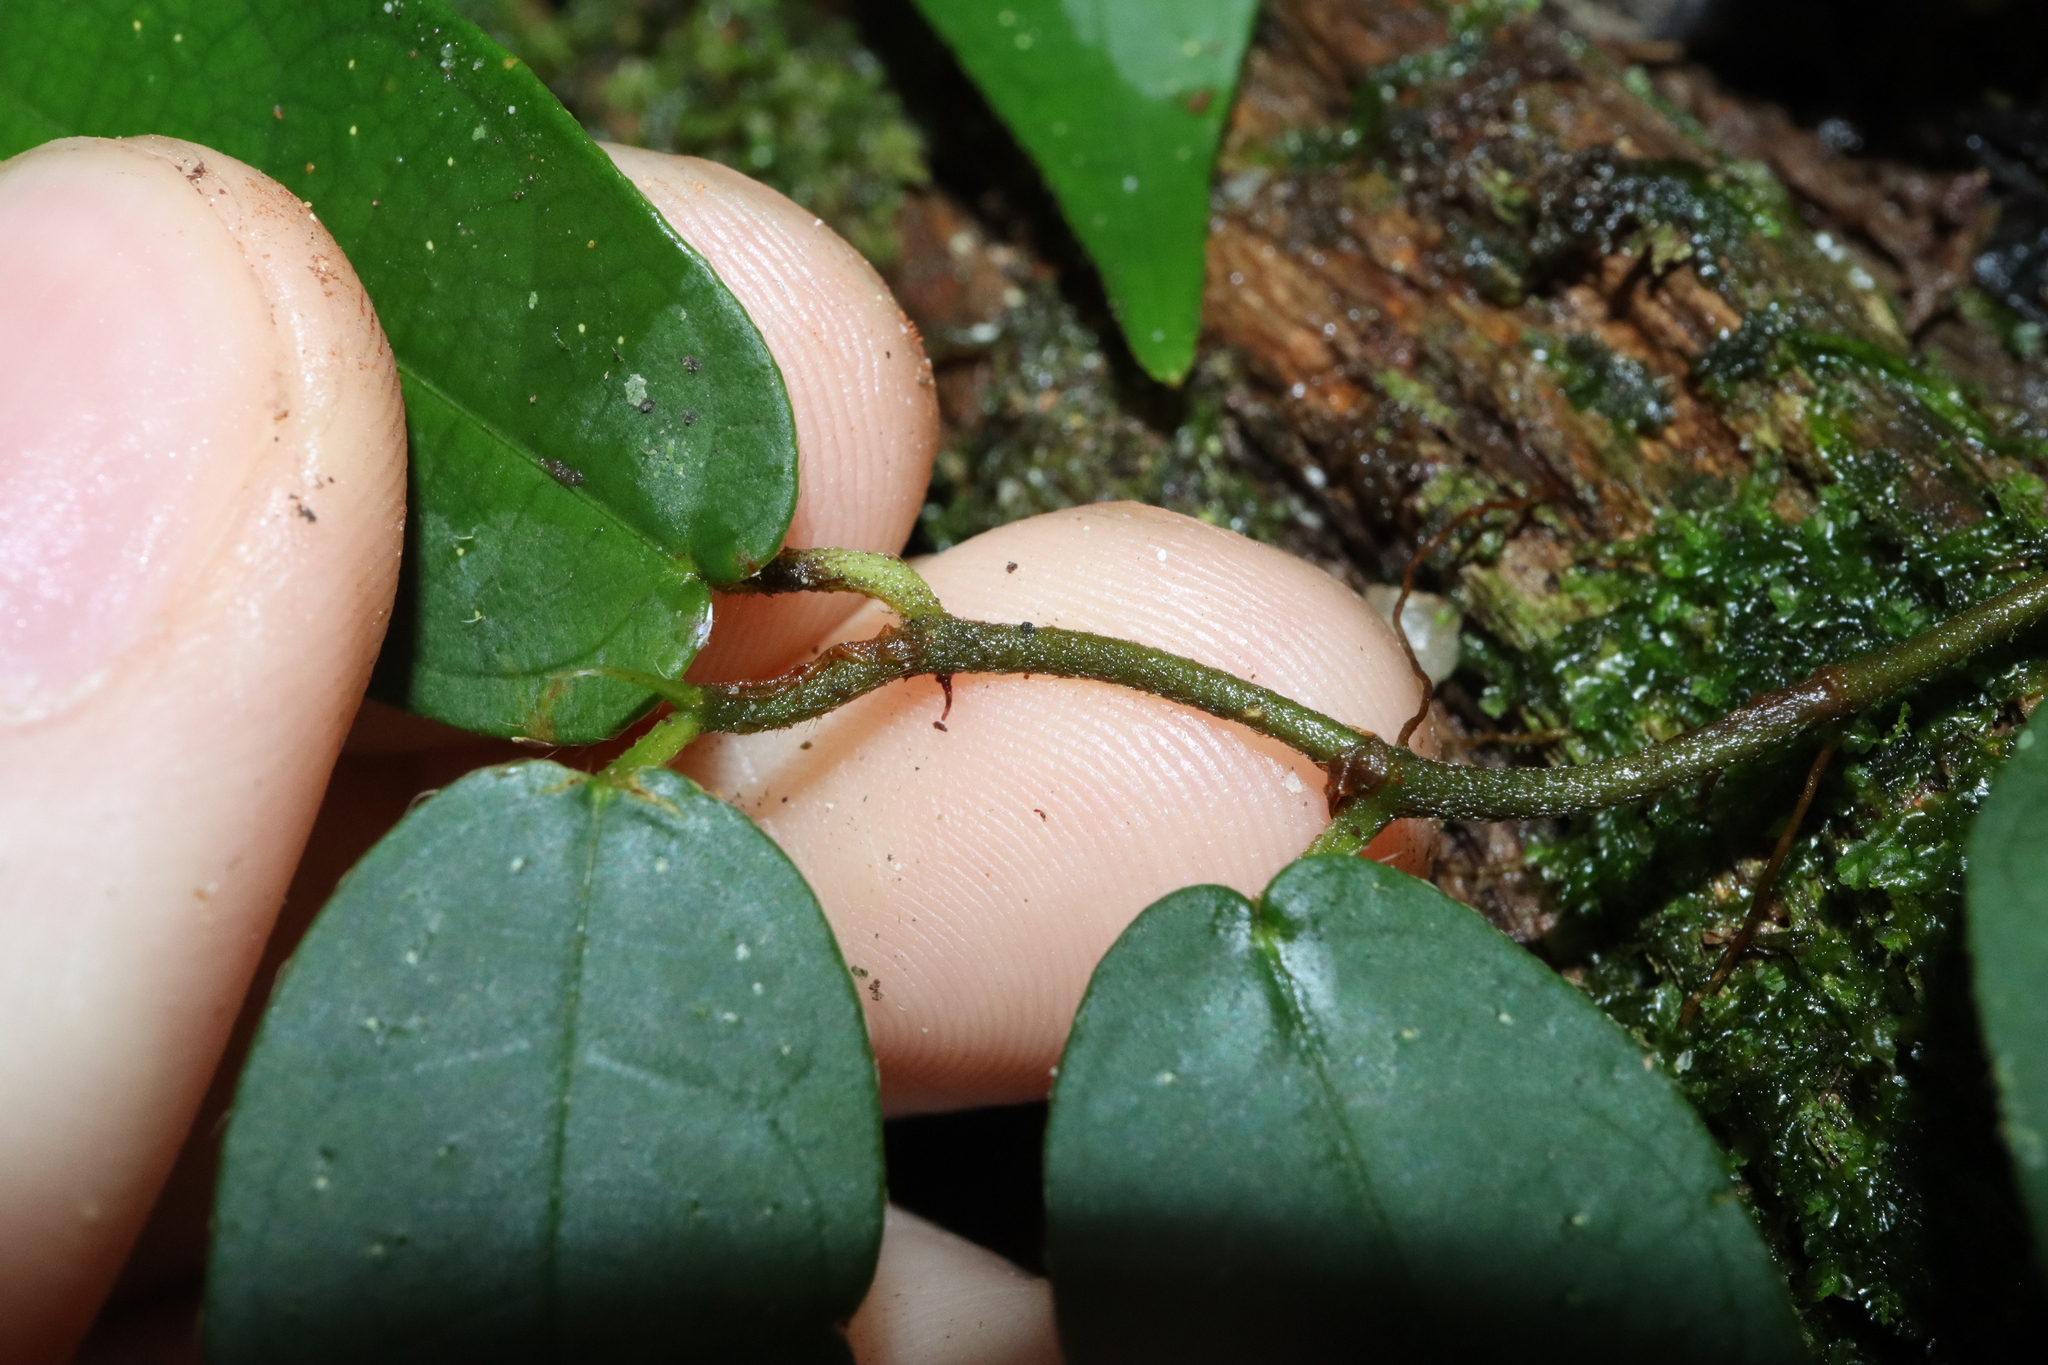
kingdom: Plantae
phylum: Tracheophyta
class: Magnoliopsida
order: Rosales
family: Moraceae
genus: Ficus
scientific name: Ficus pantoniana
